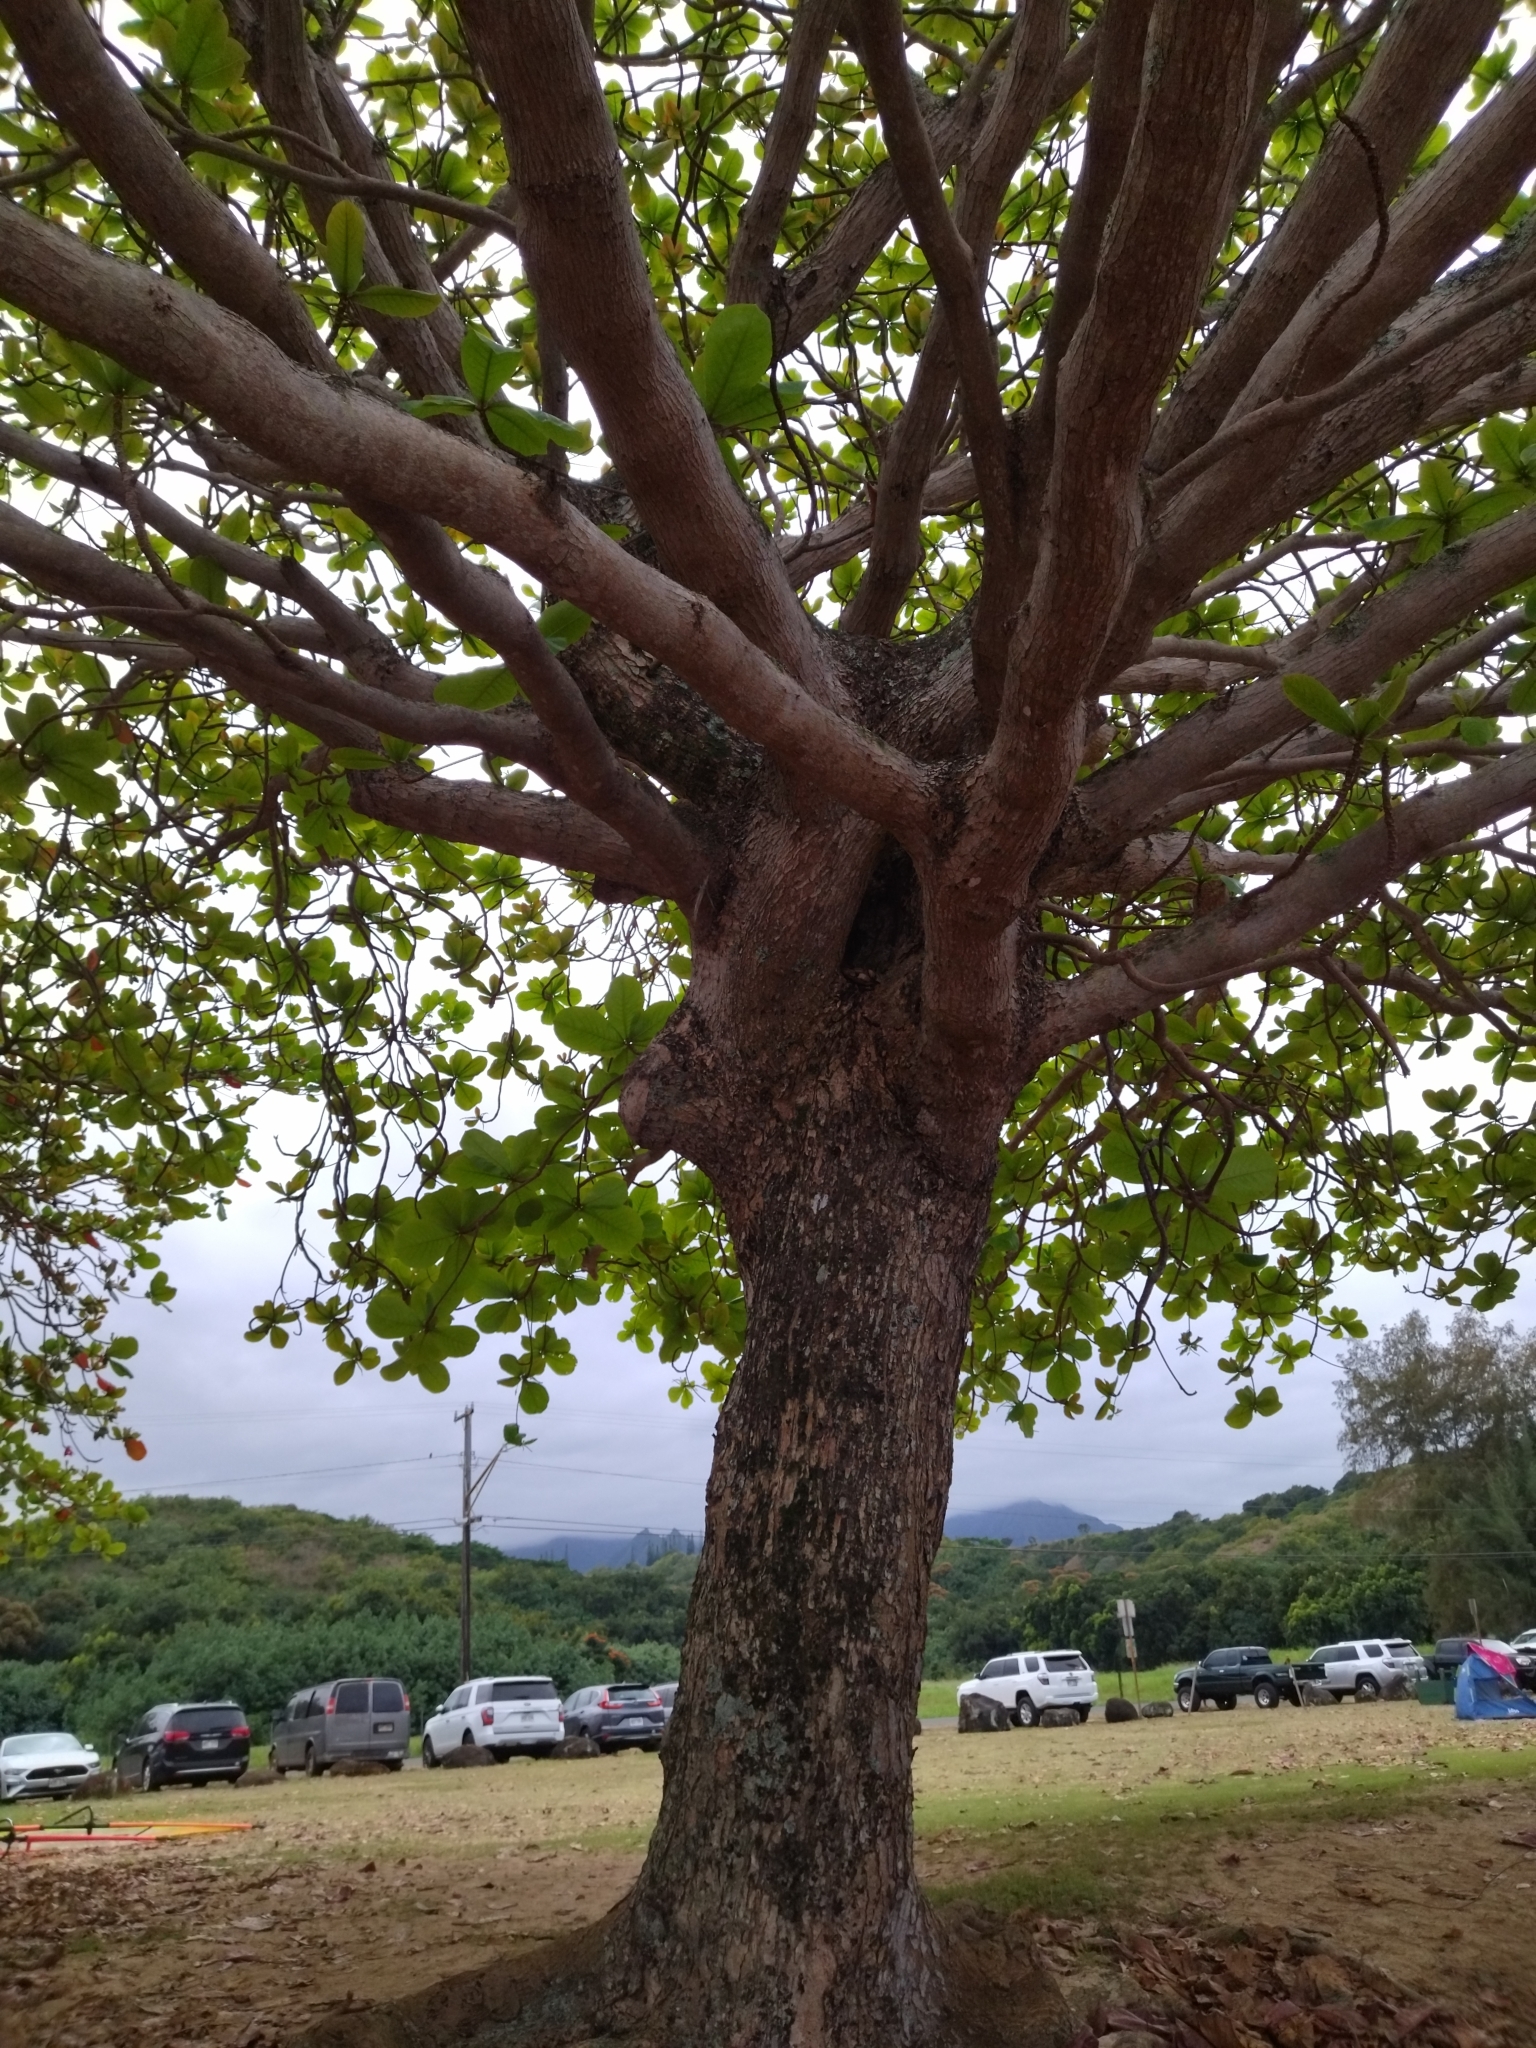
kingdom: Plantae
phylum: Tracheophyta
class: Magnoliopsida
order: Myrtales
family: Combretaceae
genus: Terminalia
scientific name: Terminalia catappa
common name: Tropical almond
